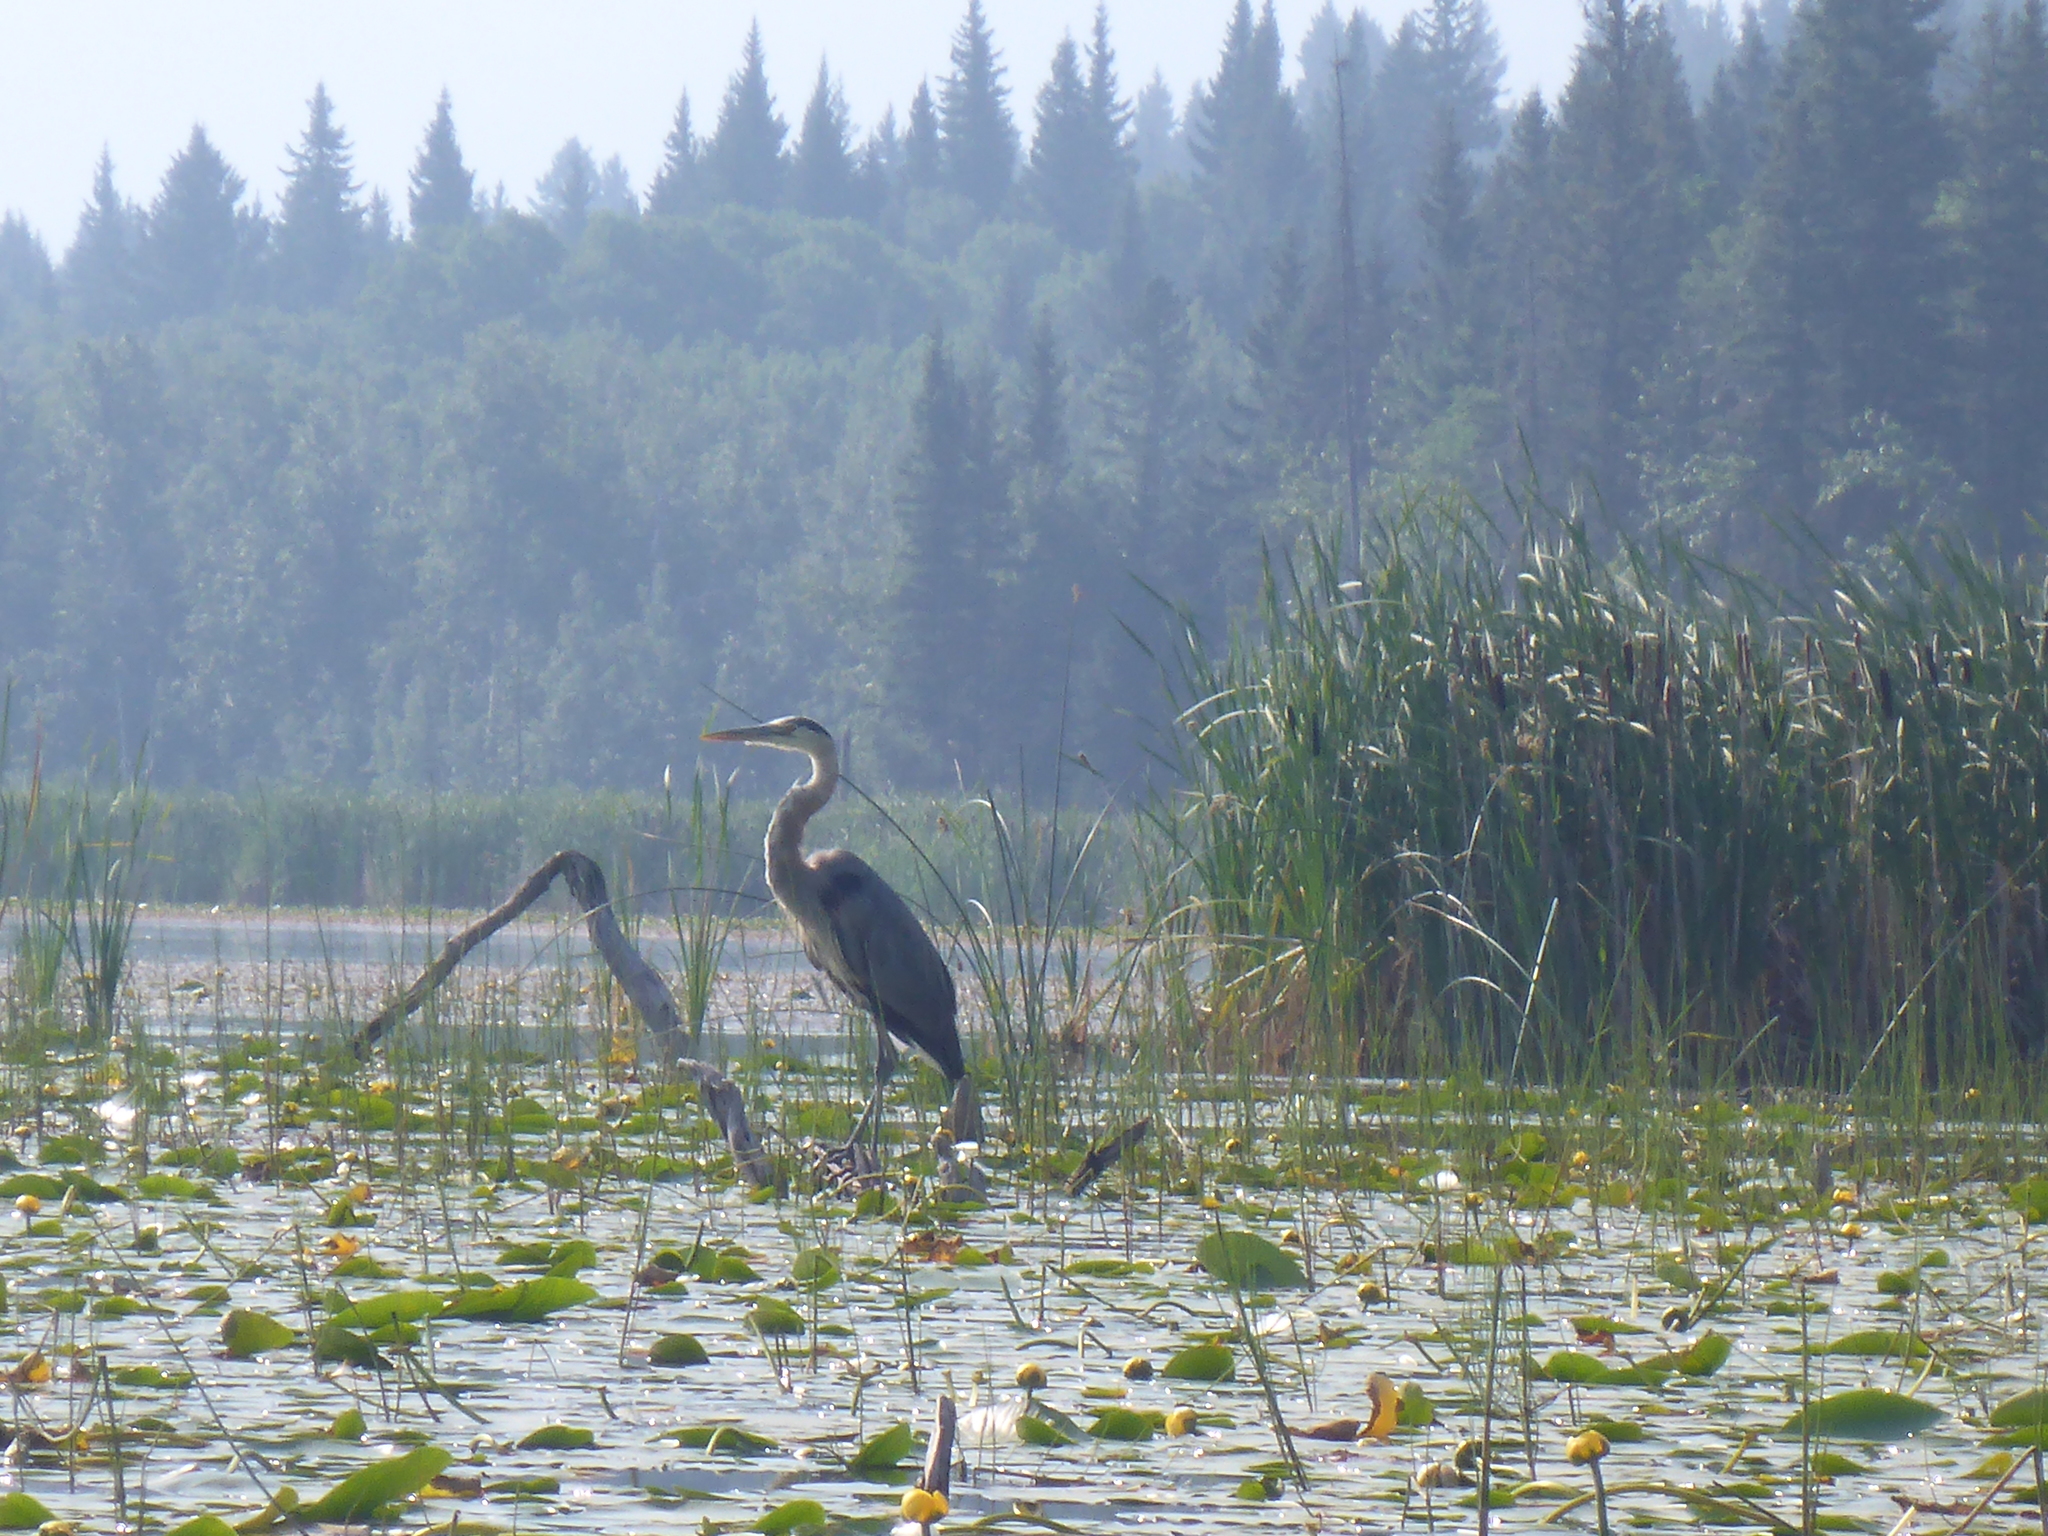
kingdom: Animalia
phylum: Chordata
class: Aves
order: Pelecaniformes
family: Ardeidae
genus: Ardea
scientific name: Ardea herodias
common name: Great blue heron
